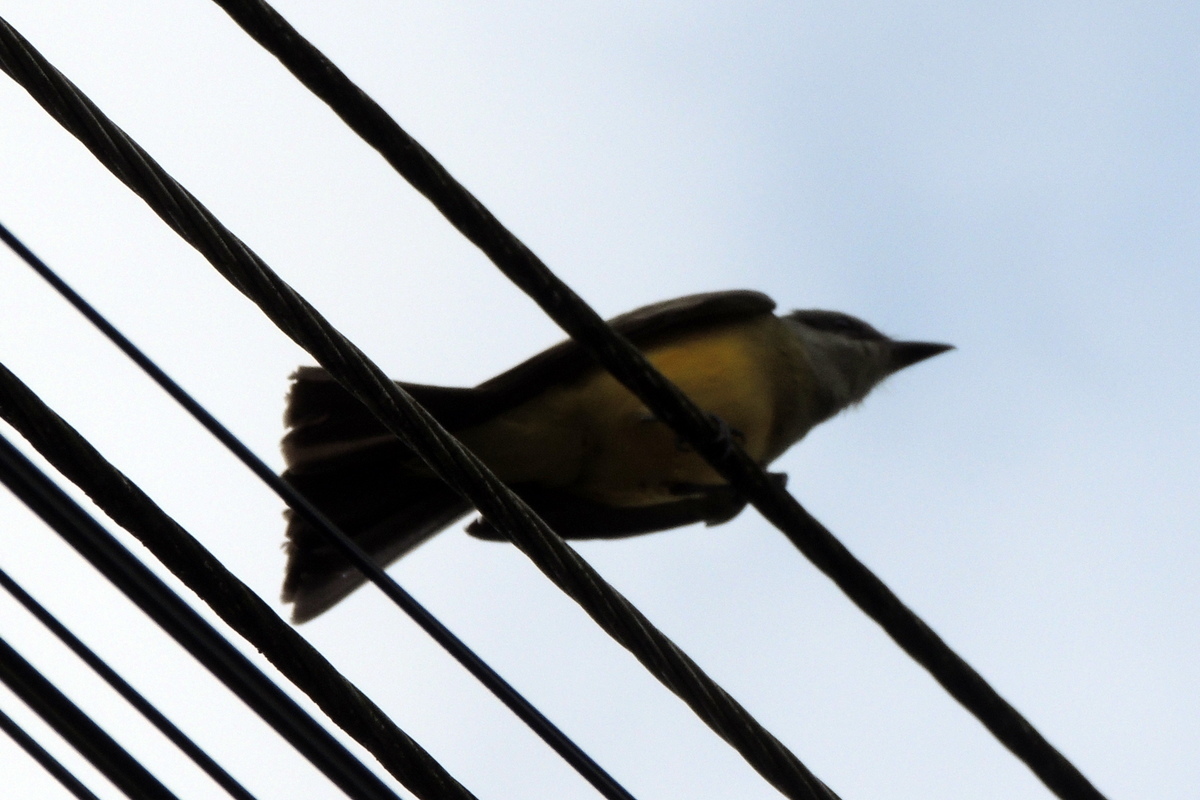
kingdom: Animalia
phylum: Chordata
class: Aves
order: Passeriformes
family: Tyrannidae
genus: Tyrannus
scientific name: Tyrannus verticalis
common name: Western kingbird
